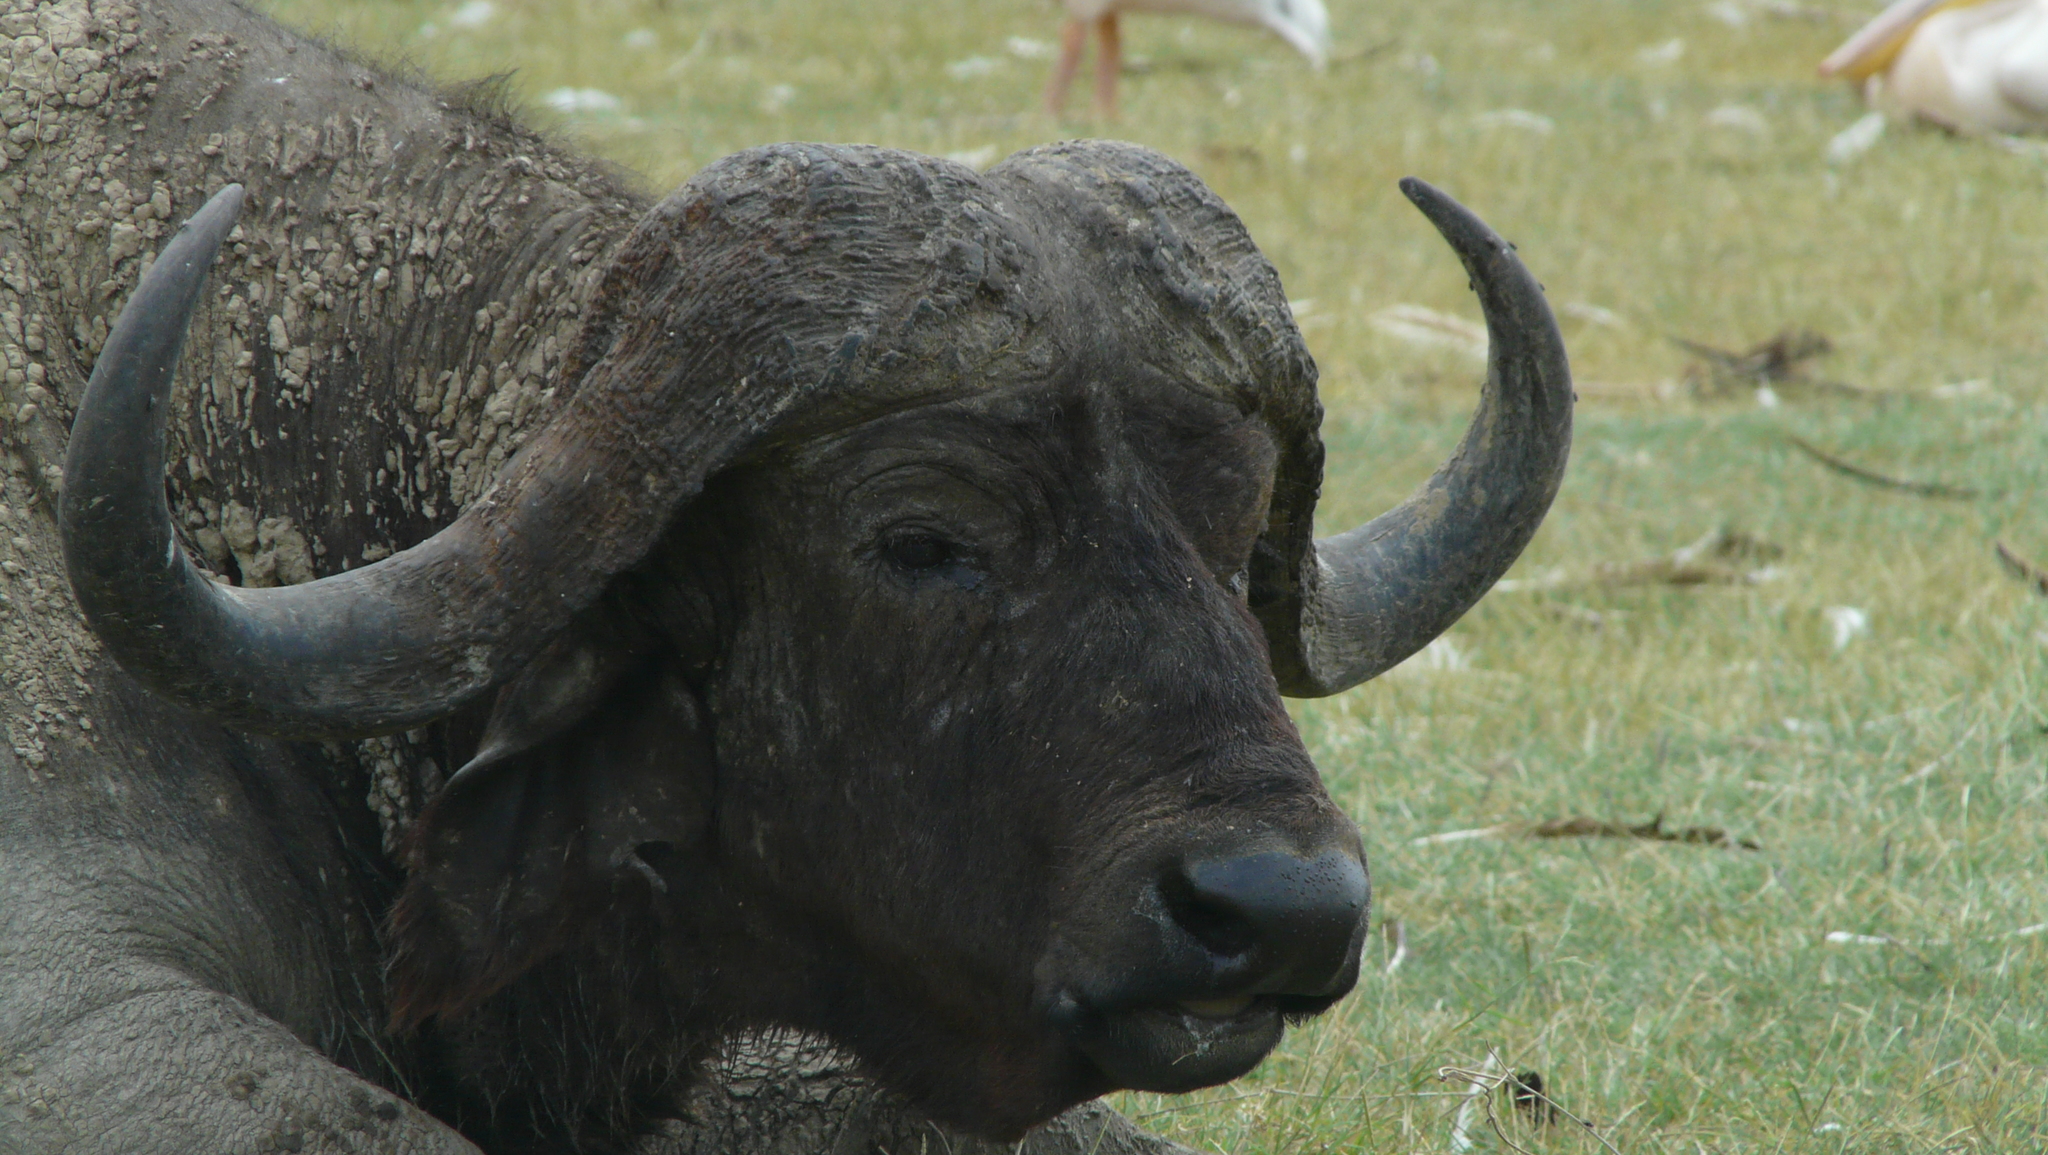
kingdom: Animalia
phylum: Chordata
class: Mammalia
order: Artiodactyla
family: Bovidae
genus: Syncerus
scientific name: Syncerus caffer
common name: African buffalo
